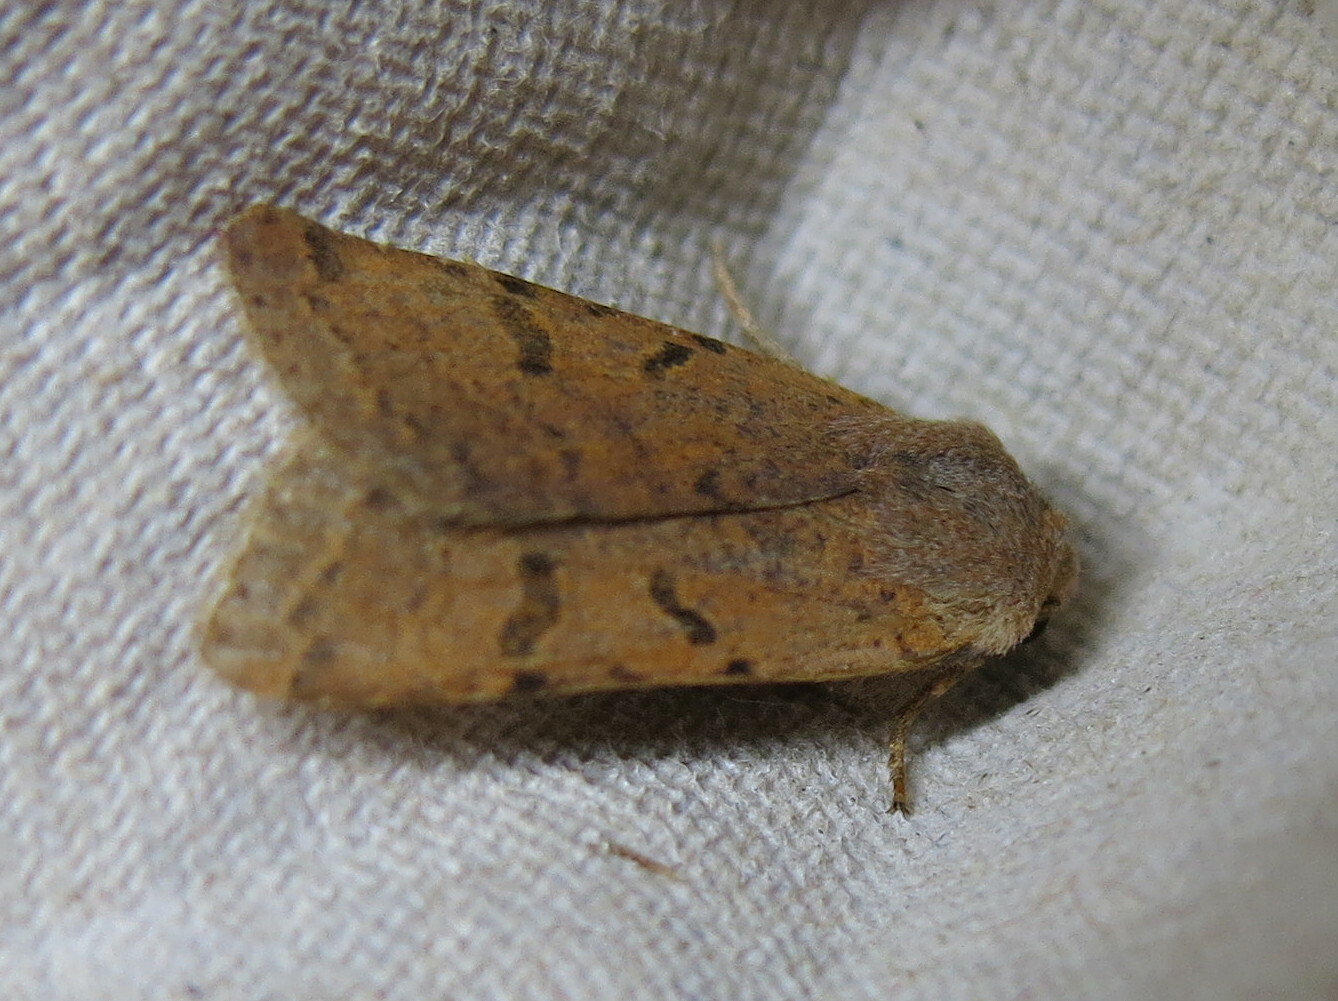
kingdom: Animalia
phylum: Arthropoda
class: Insecta
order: Lepidoptera
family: Noctuidae
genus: Agrochola
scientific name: Agrochola lychnidis
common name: Beaded chestnut
